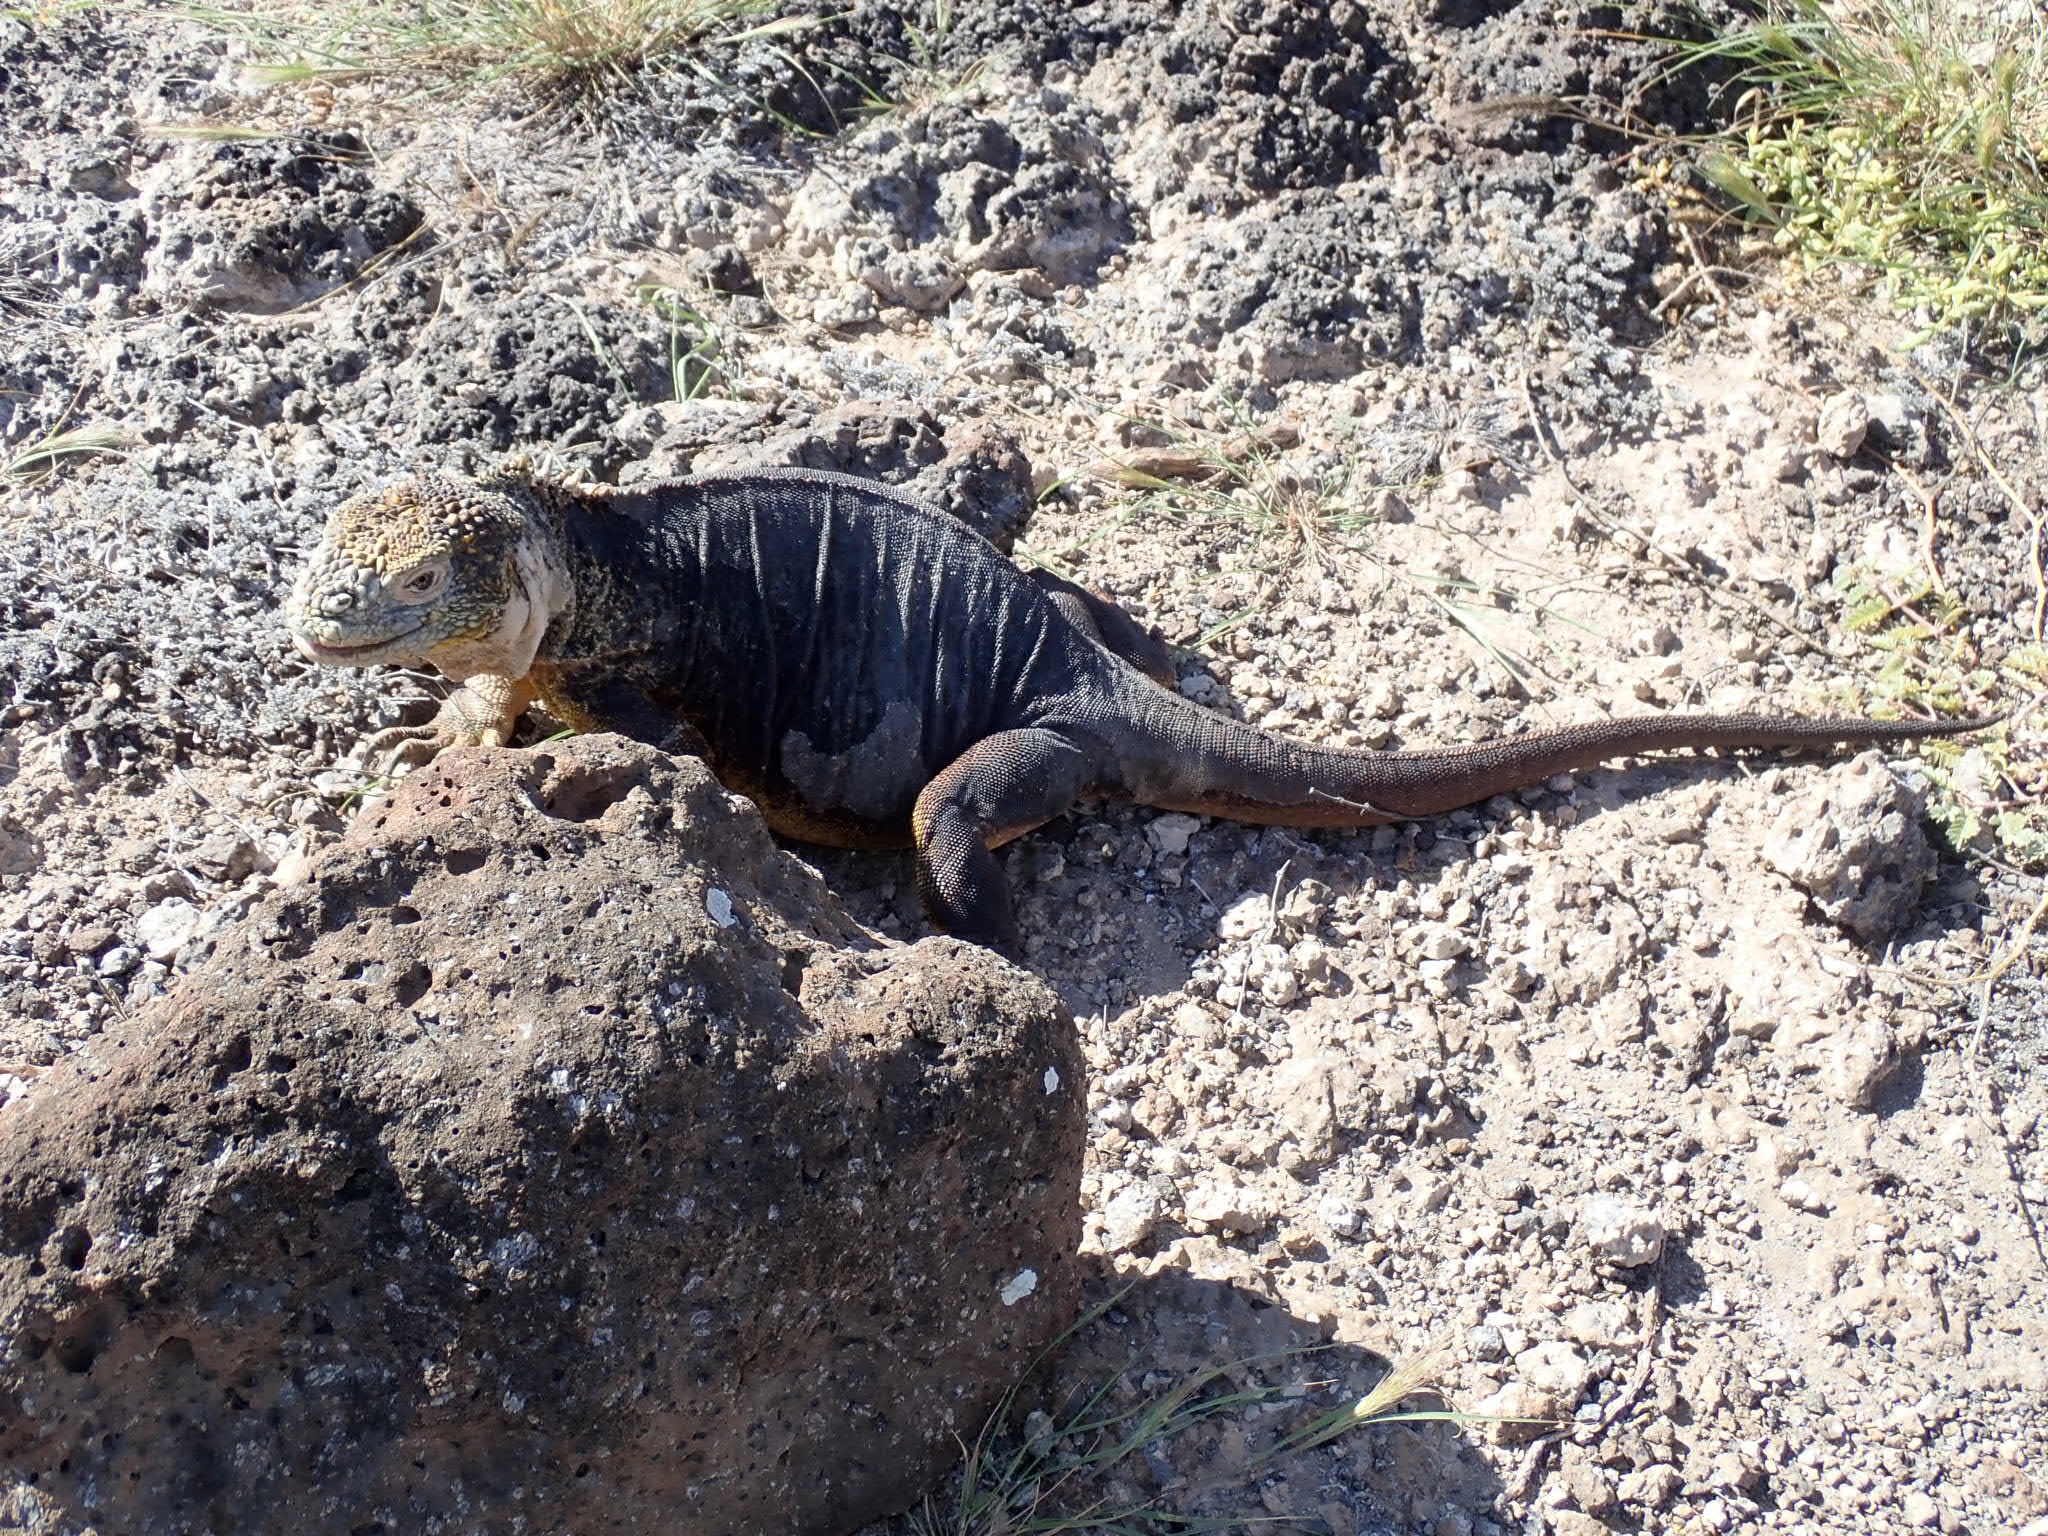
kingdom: Animalia
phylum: Chordata
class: Squamata
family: Iguanidae
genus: Conolophus
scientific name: Conolophus subcristatus
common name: Galapagos land iguana
